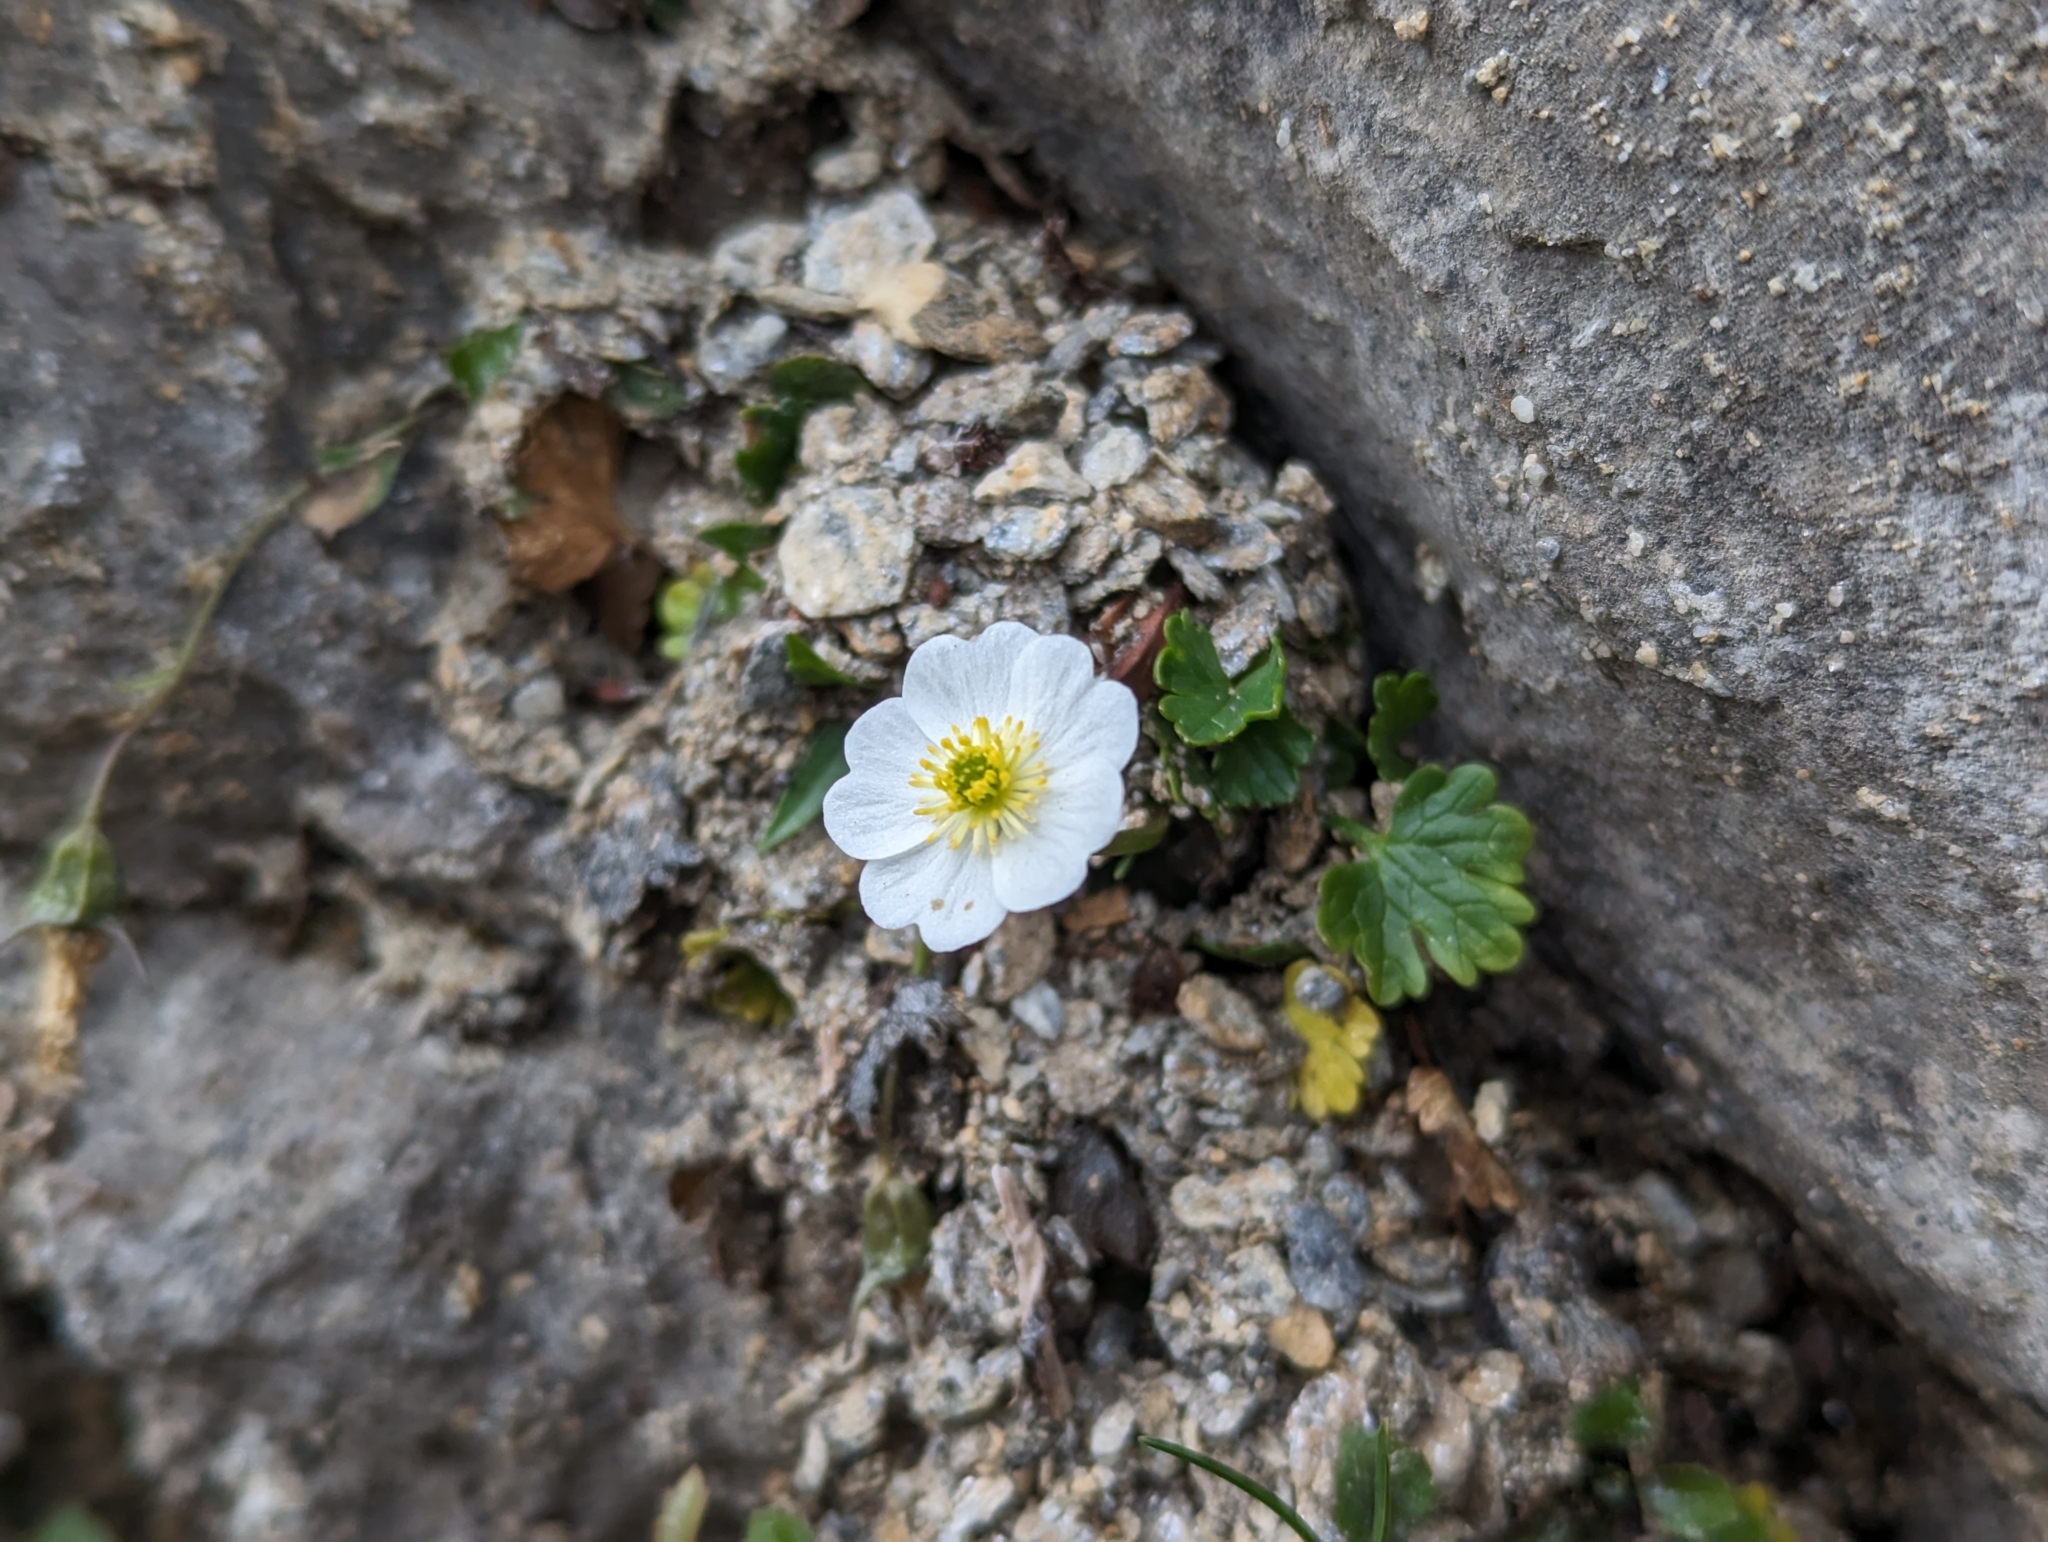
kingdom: Plantae
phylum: Tracheophyta
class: Magnoliopsida
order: Ranunculales
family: Ranunculaceae
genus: Ranunculus
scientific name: Ranunculus alpestris
